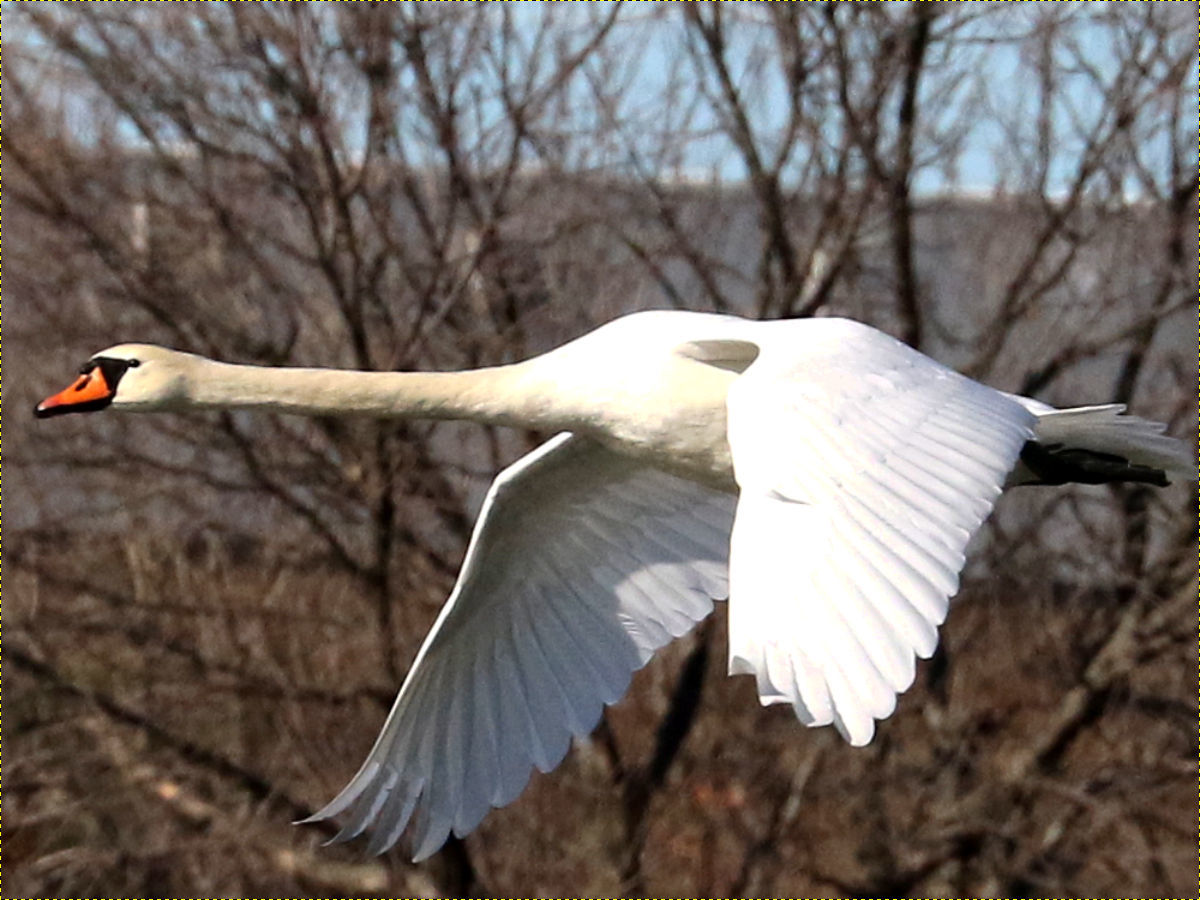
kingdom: Animalia
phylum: Chordata
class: Aves
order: Anseriformes
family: Anatidae
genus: Cygnus
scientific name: Cygnus olor
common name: Mute swan
